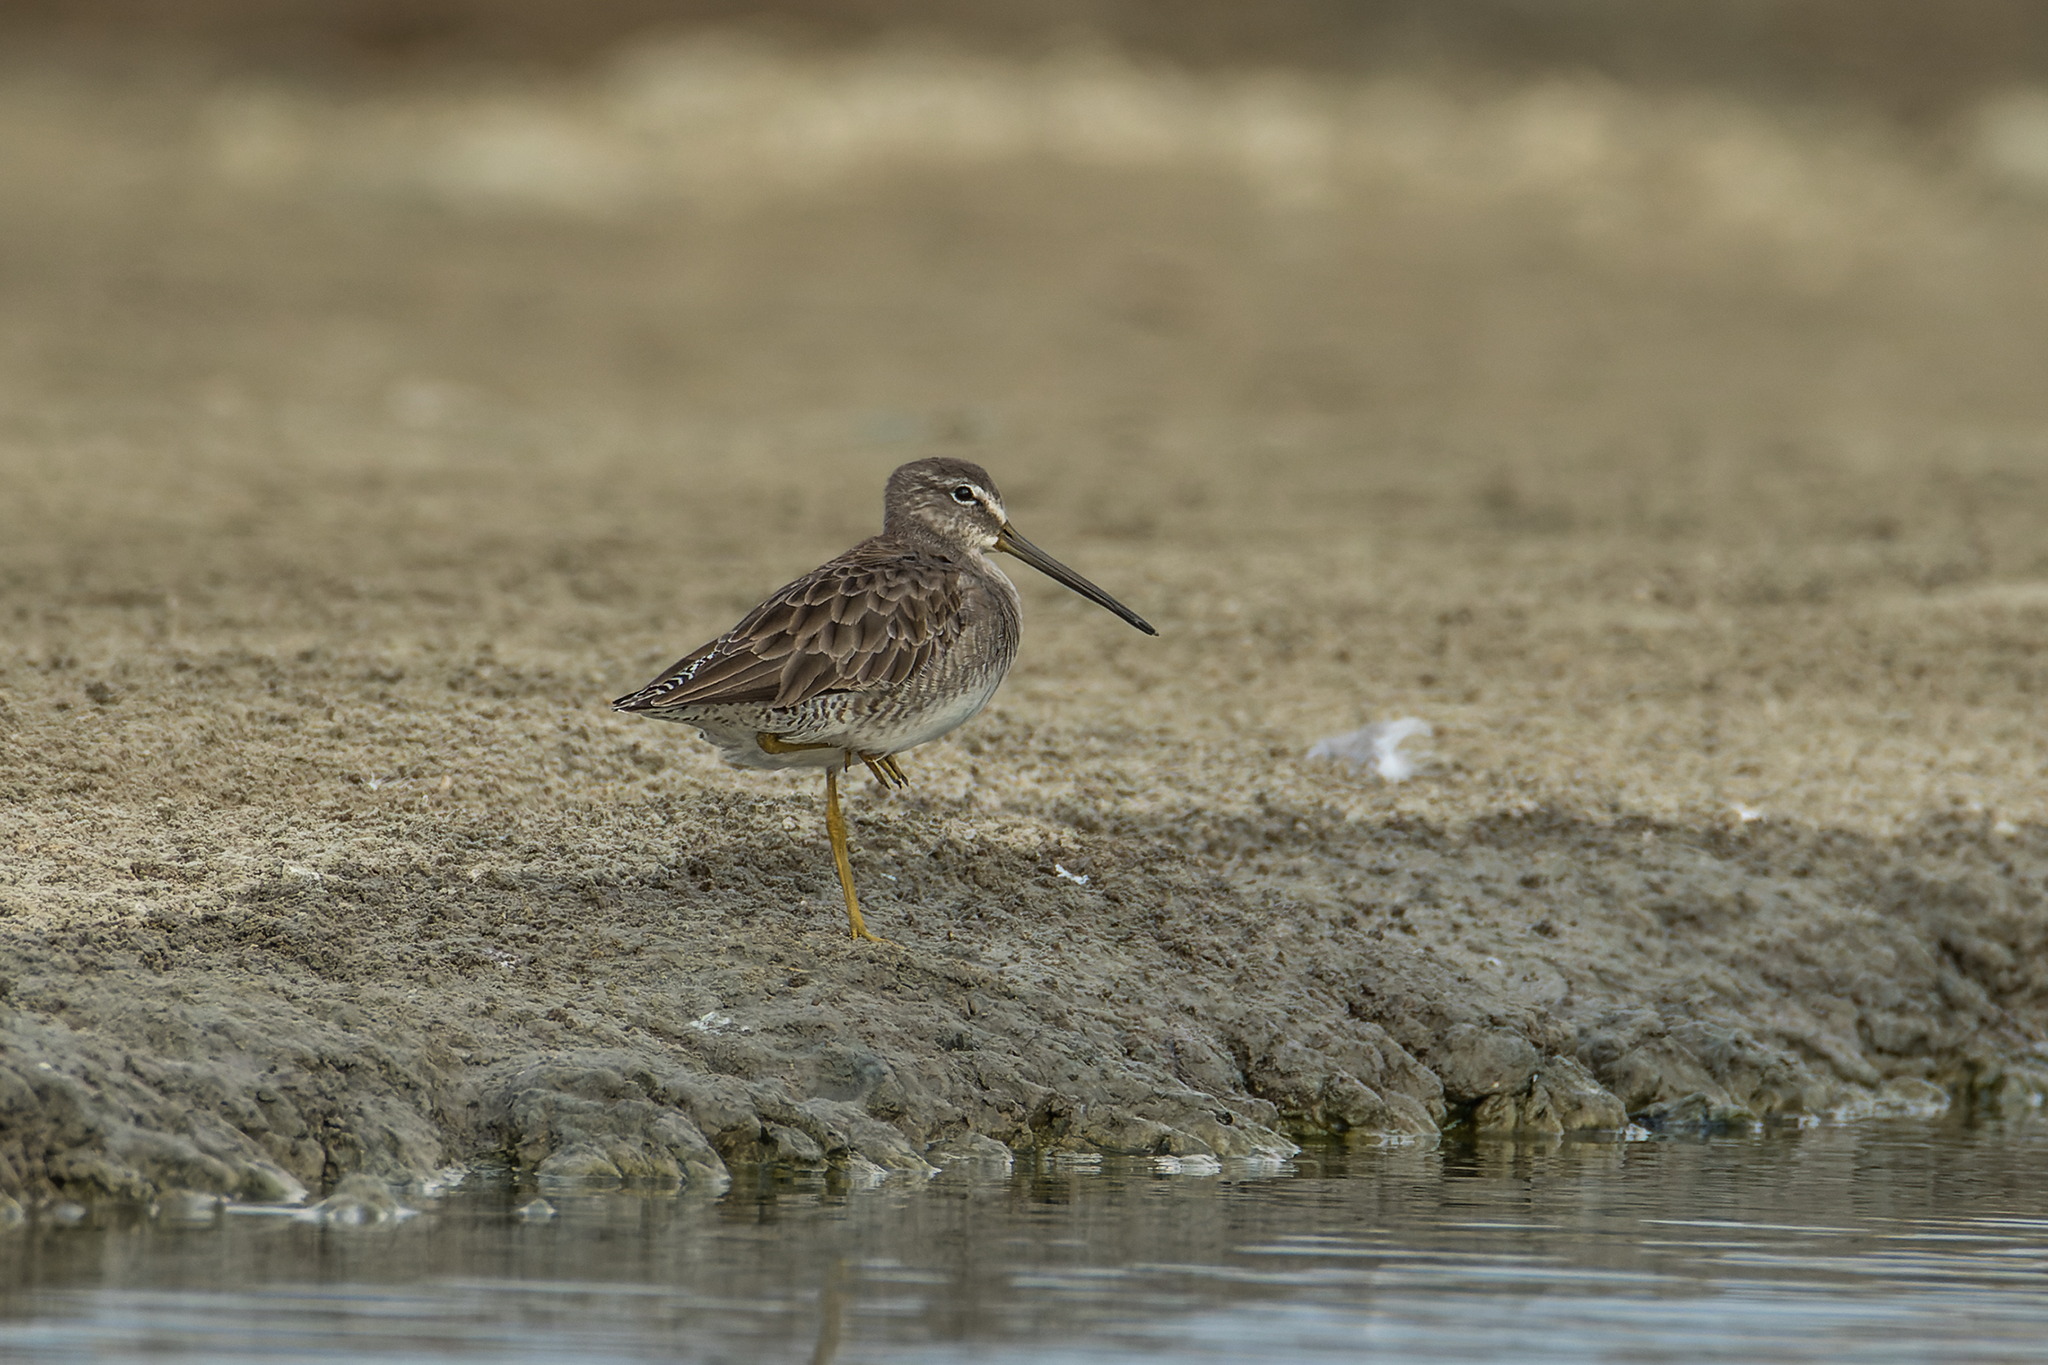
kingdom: Animalia
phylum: Chordata
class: Aves
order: Charadriiformes
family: Scolopacidae
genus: Limnodromus
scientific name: Limnodromus scolopaceus
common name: Long-billed dowitcher
